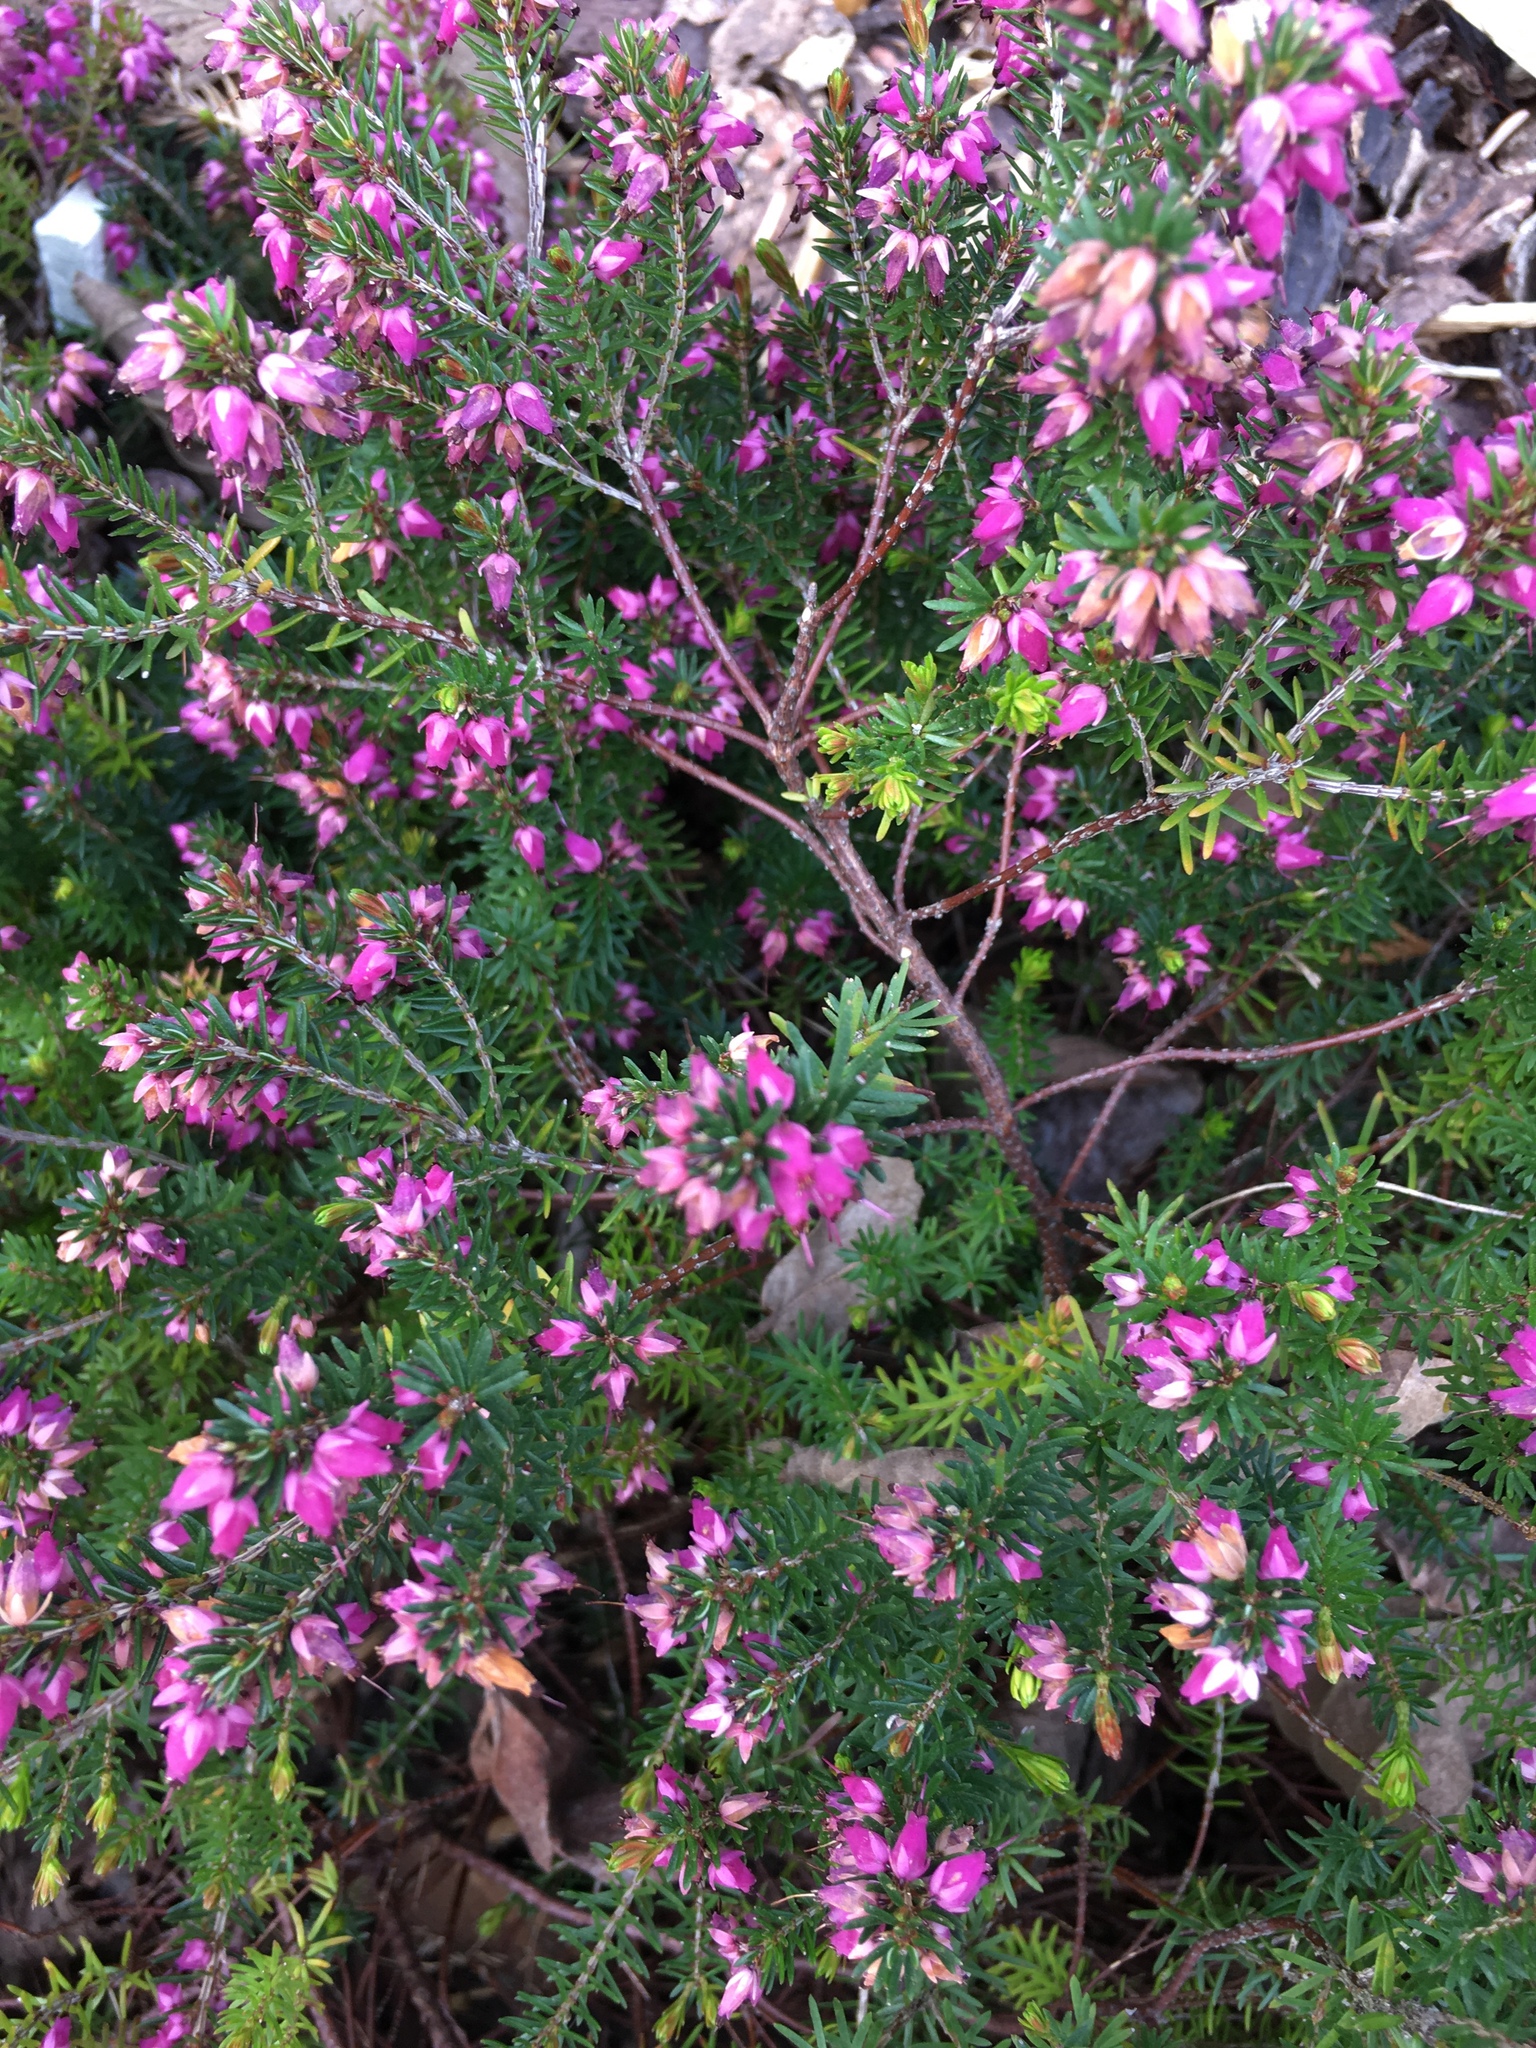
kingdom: Plantae
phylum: Tracheophyta
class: Magnoliopsida
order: Ericales
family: Ericaceae
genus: Erica
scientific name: Erica carnea
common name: Winter heath
